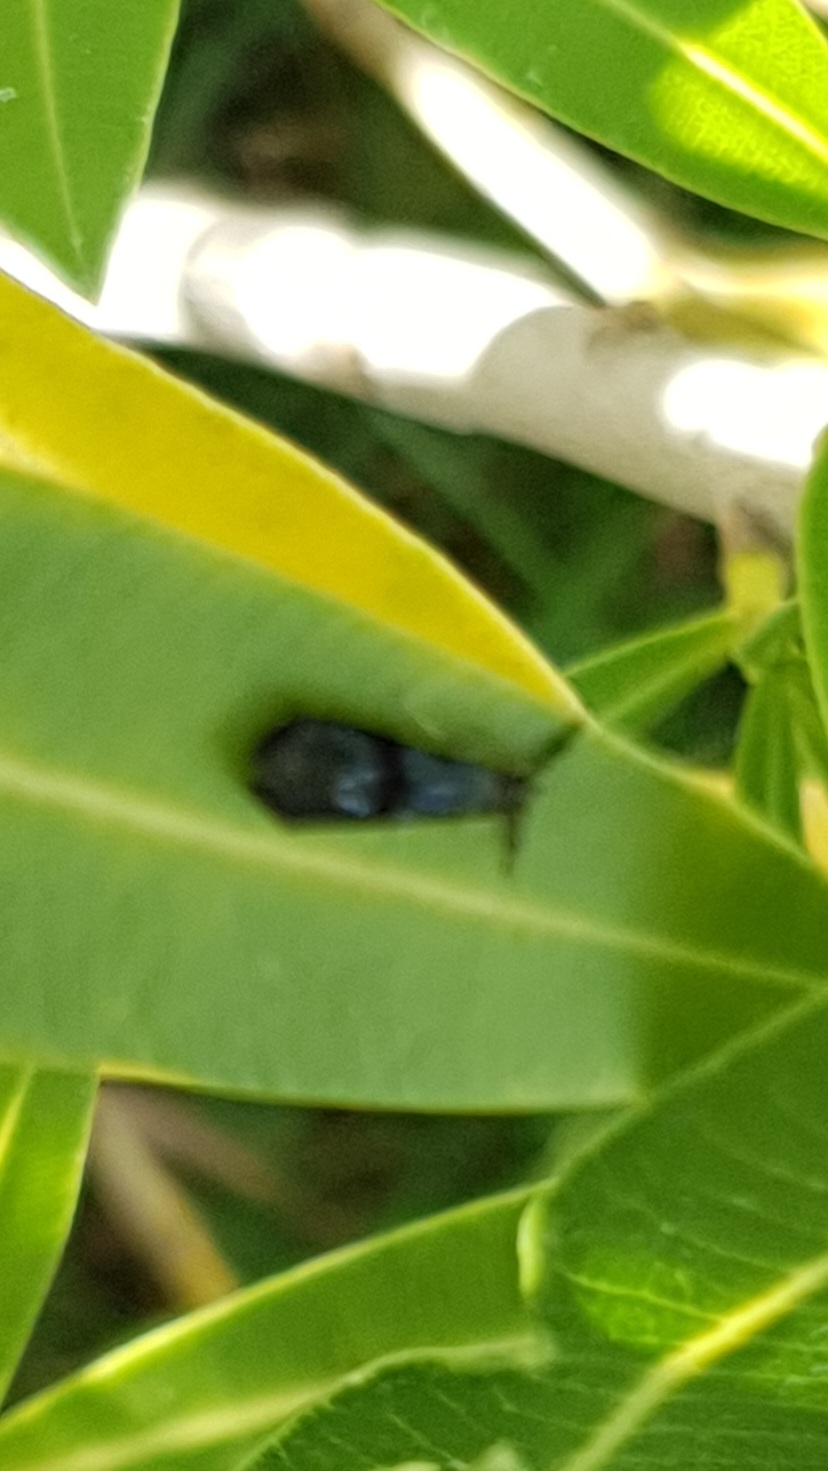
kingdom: Animalia
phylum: Arthropoda
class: Insecta
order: Trichoptera
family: Leptoceridae
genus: Mystacides
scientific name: Mystacides azureus
